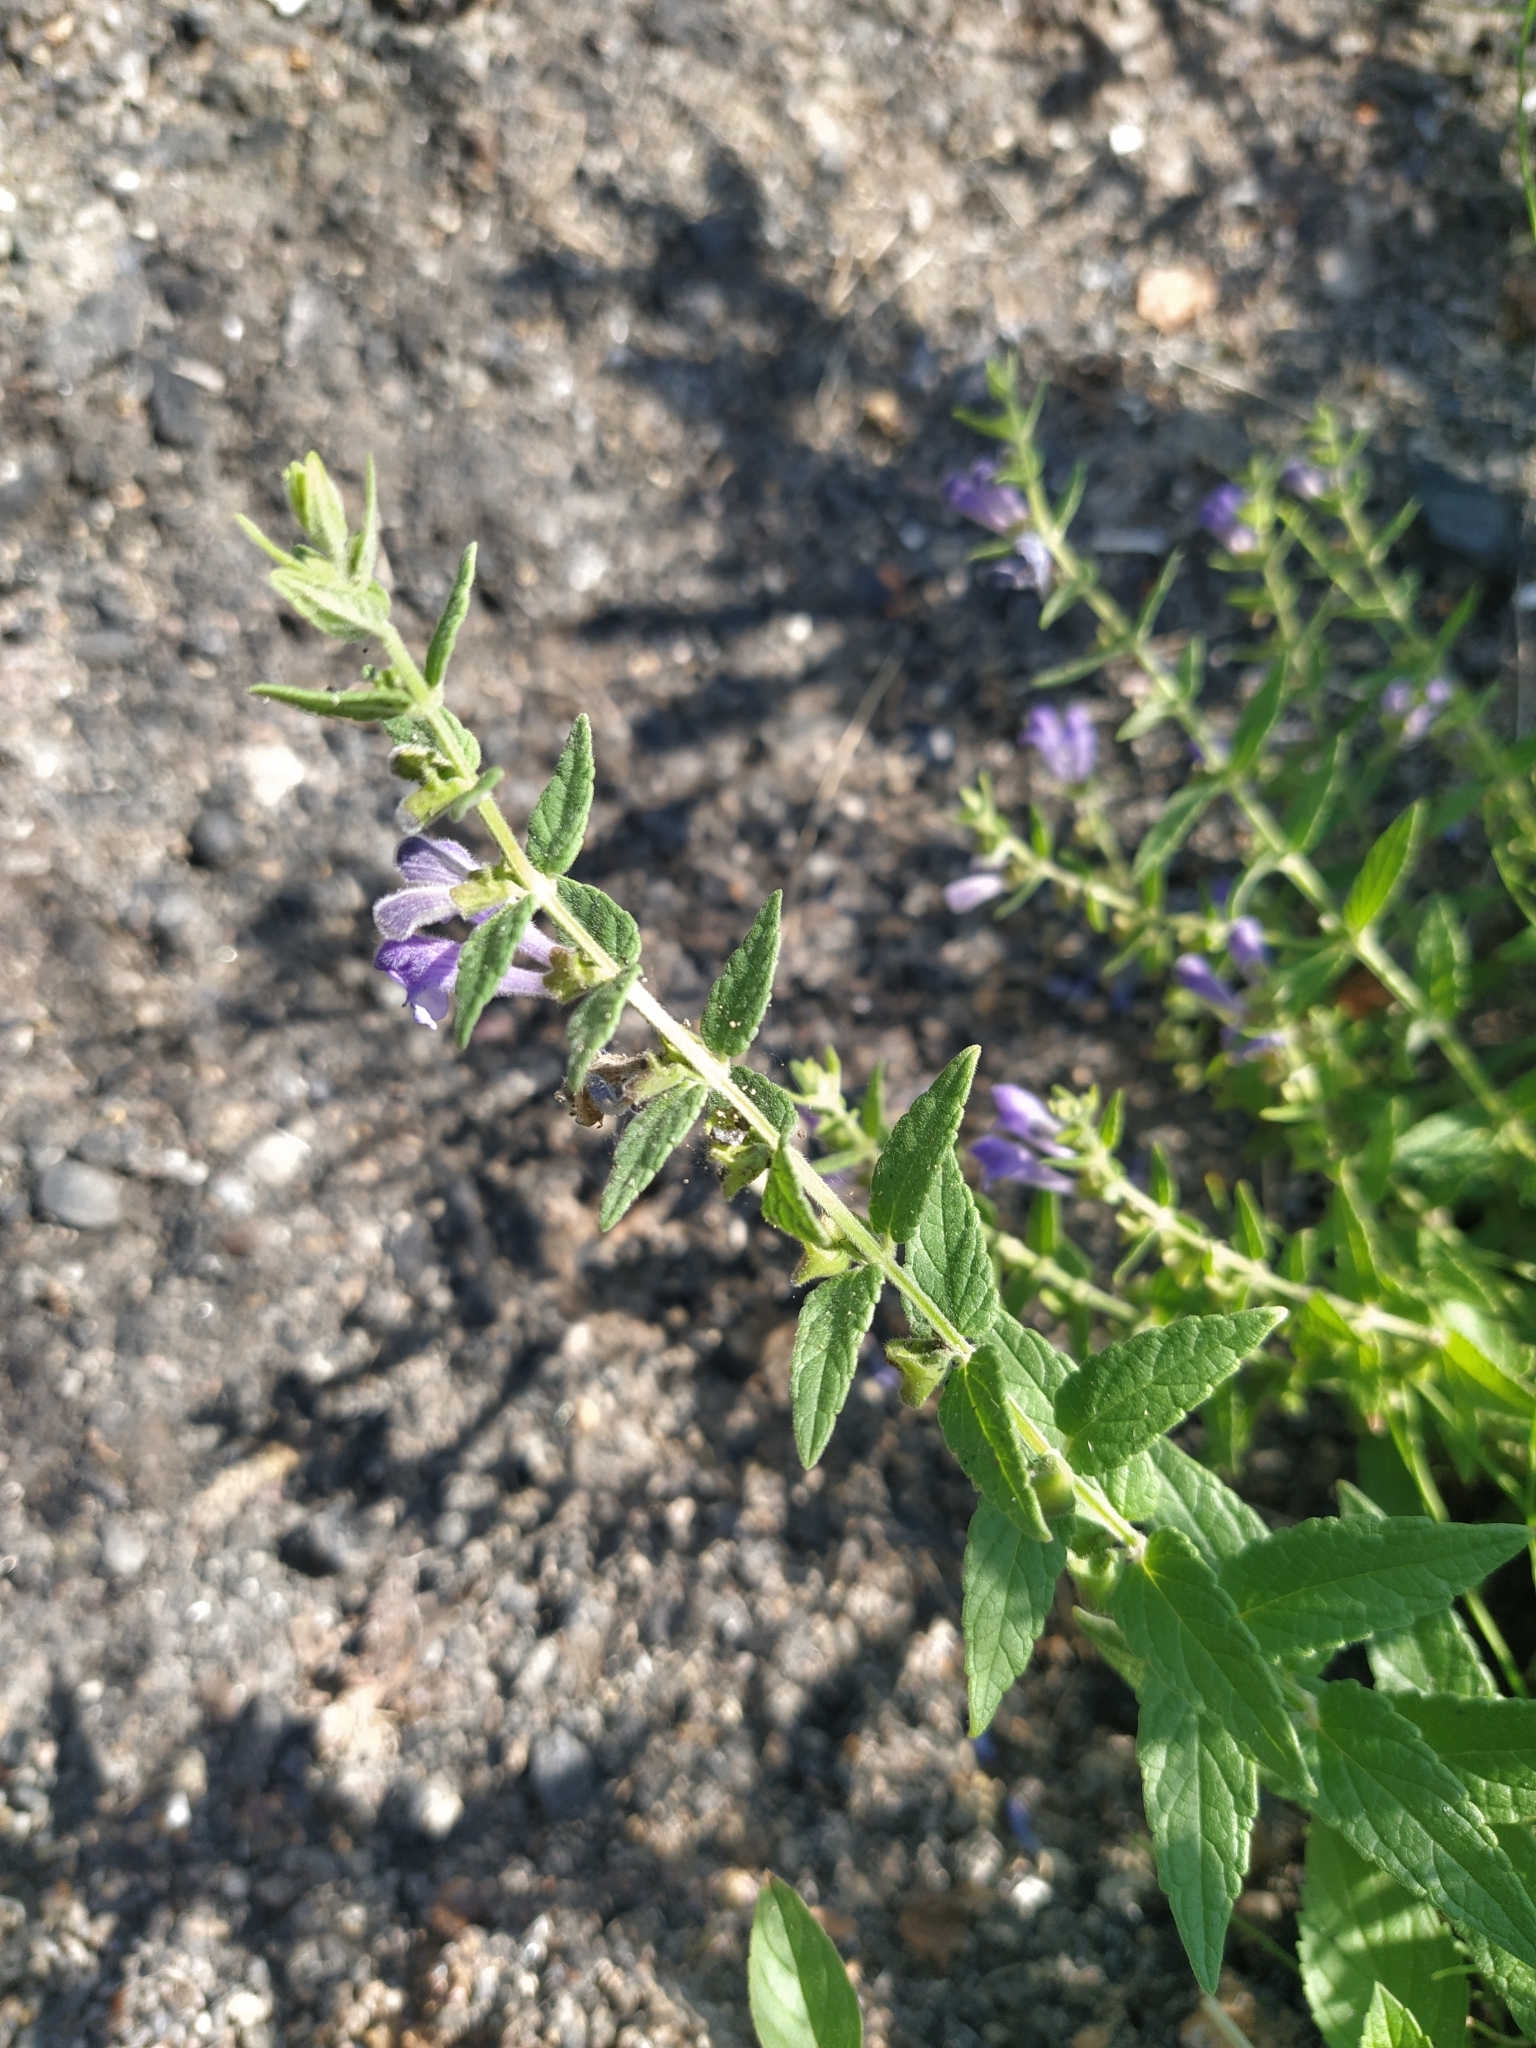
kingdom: Plantae
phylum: Tracheophyta
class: Magnoliopsida
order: Lamiales
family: Lamiaceae
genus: Scutellaria
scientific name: Scutellaria galericulata
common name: Skullcap
